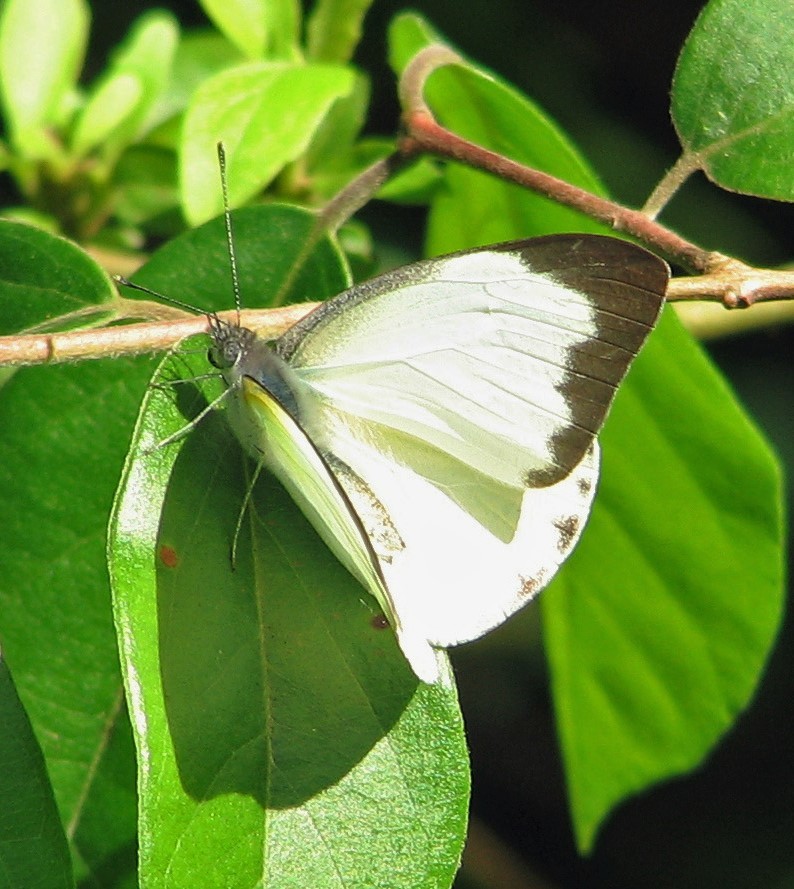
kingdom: Animalia
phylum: Arthropoda
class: Insecta
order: Lepidoptera
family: Pieridae
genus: Glutophrissa
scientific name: Glutophrissa drusilla
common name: Florida white
